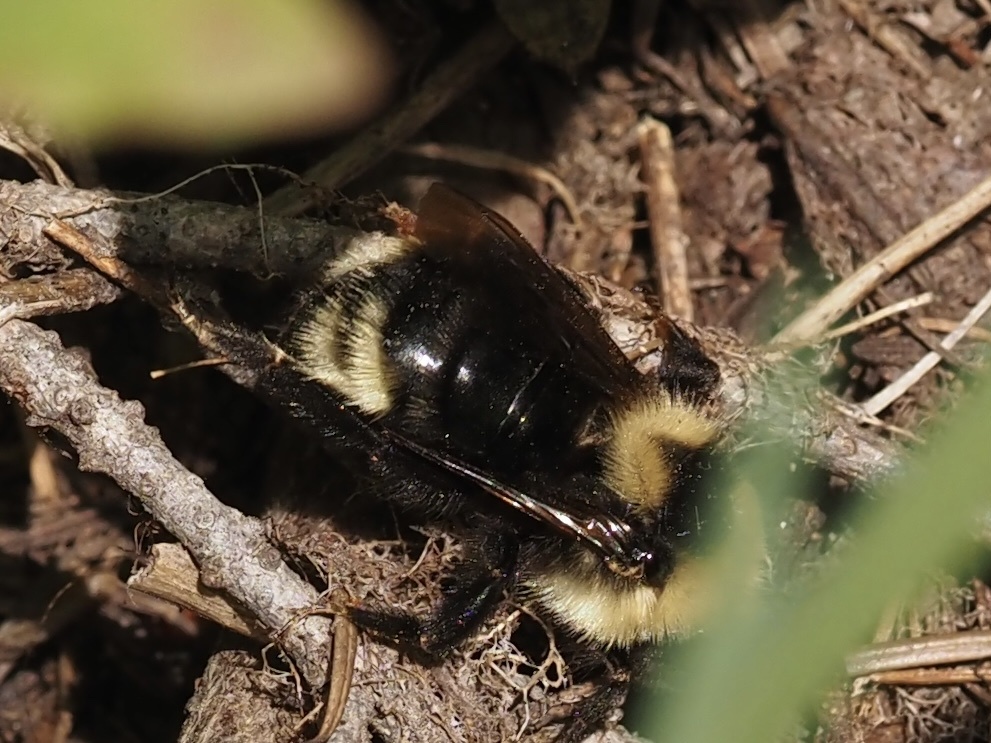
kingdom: Animalia
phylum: Arthropoda
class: Insecta
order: Hymenoptera
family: Apidae
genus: Bombus
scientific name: Bombus insularis
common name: Indiscriminate cuckoo bumble bee
